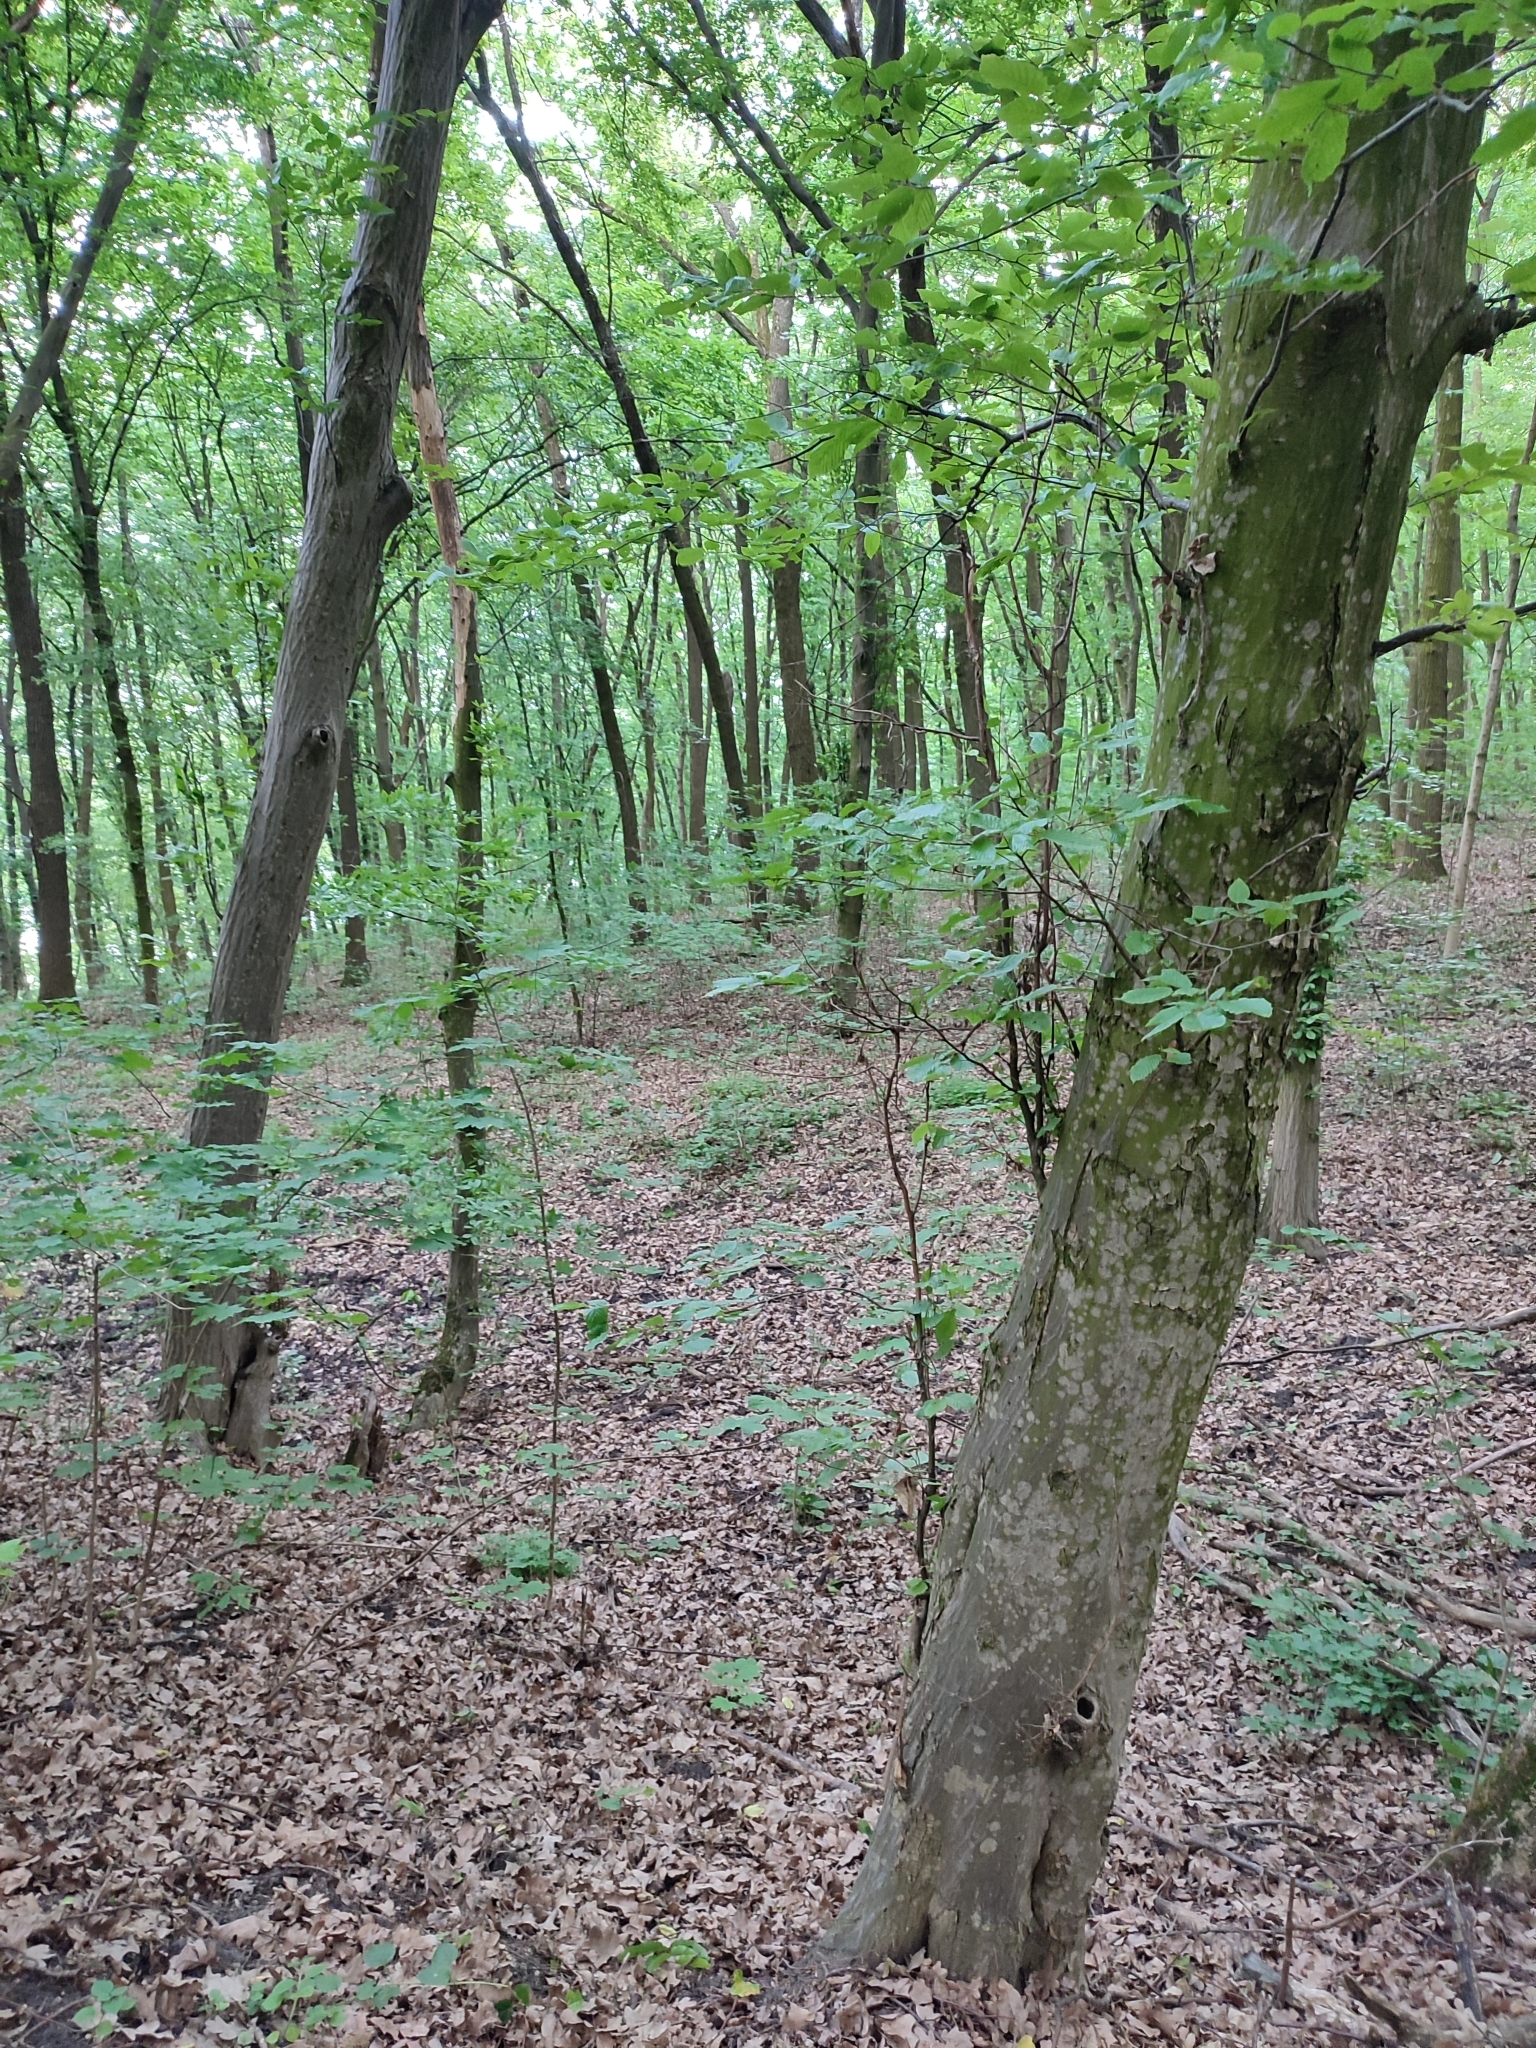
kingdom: Plantae
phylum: Tracheophyta
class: Magnoliopsida
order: Fagales
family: Betulaceae
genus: Carpinus
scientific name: Carpinus betulus
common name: Hornbeam
